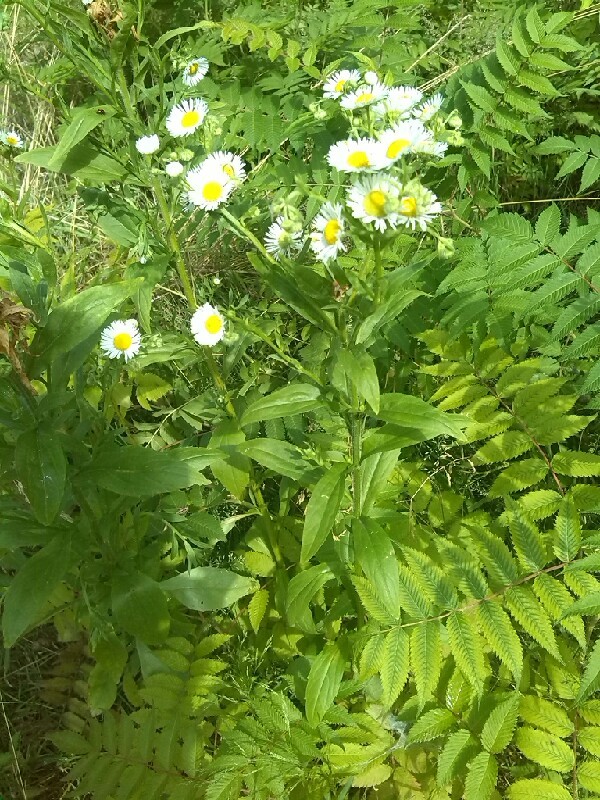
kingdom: Plantae
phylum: Tracheophyta
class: Magnoliopsida
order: Asterales
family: Asteraceae
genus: Erigeron
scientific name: Erigeron annuus
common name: Tall fleabane
